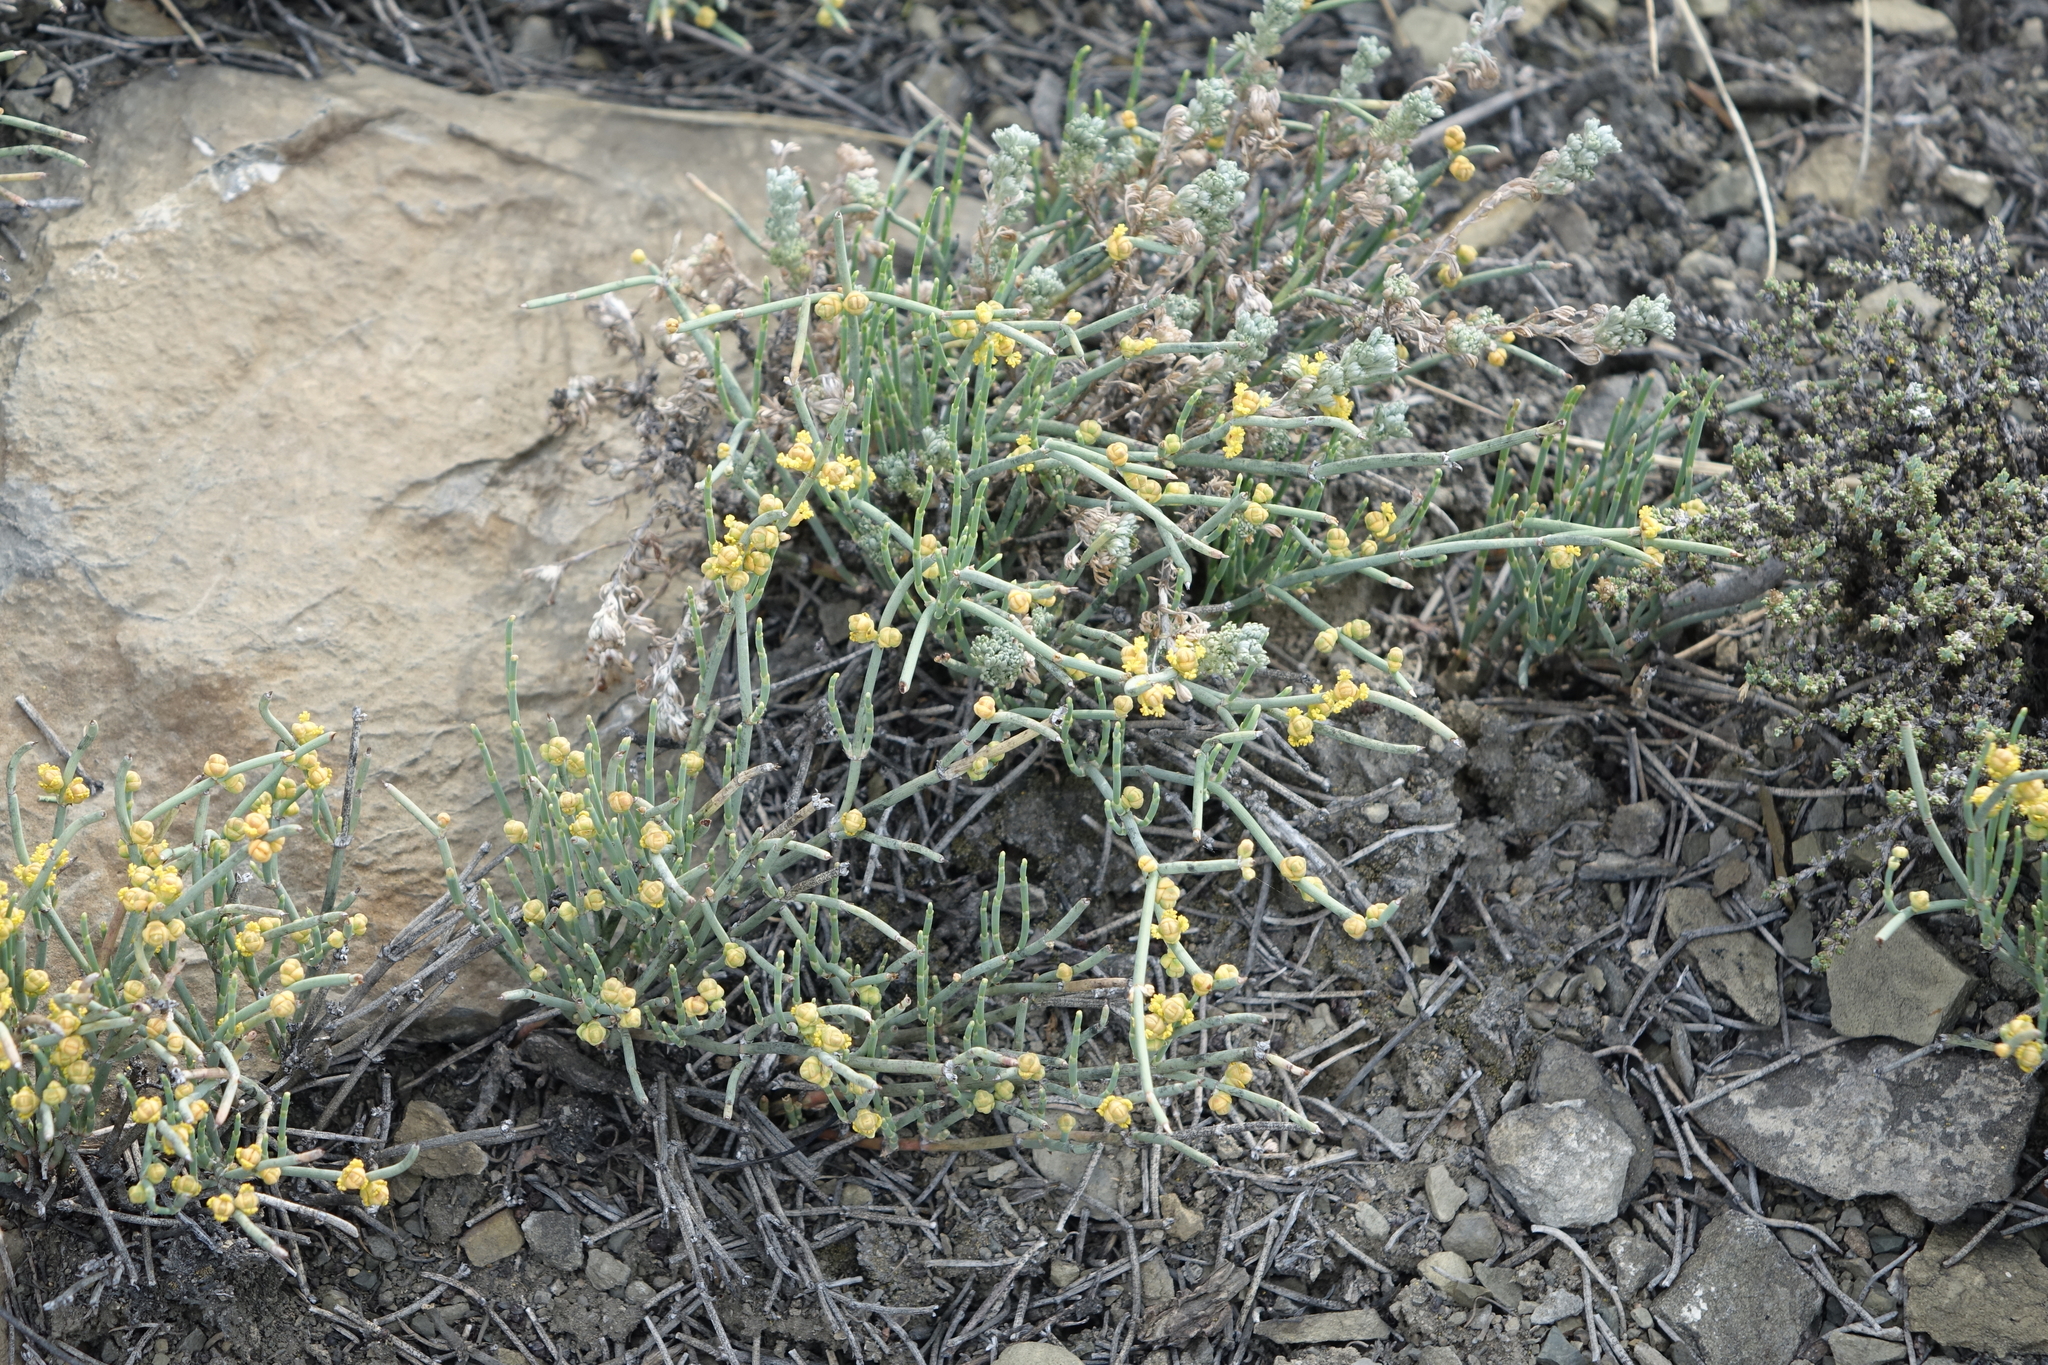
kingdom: Plantae
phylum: Tracheophyta
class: Gnetopsida
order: Ephedrales
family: Ephedraceae
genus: Ephedra
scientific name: Ephedra monosperma
